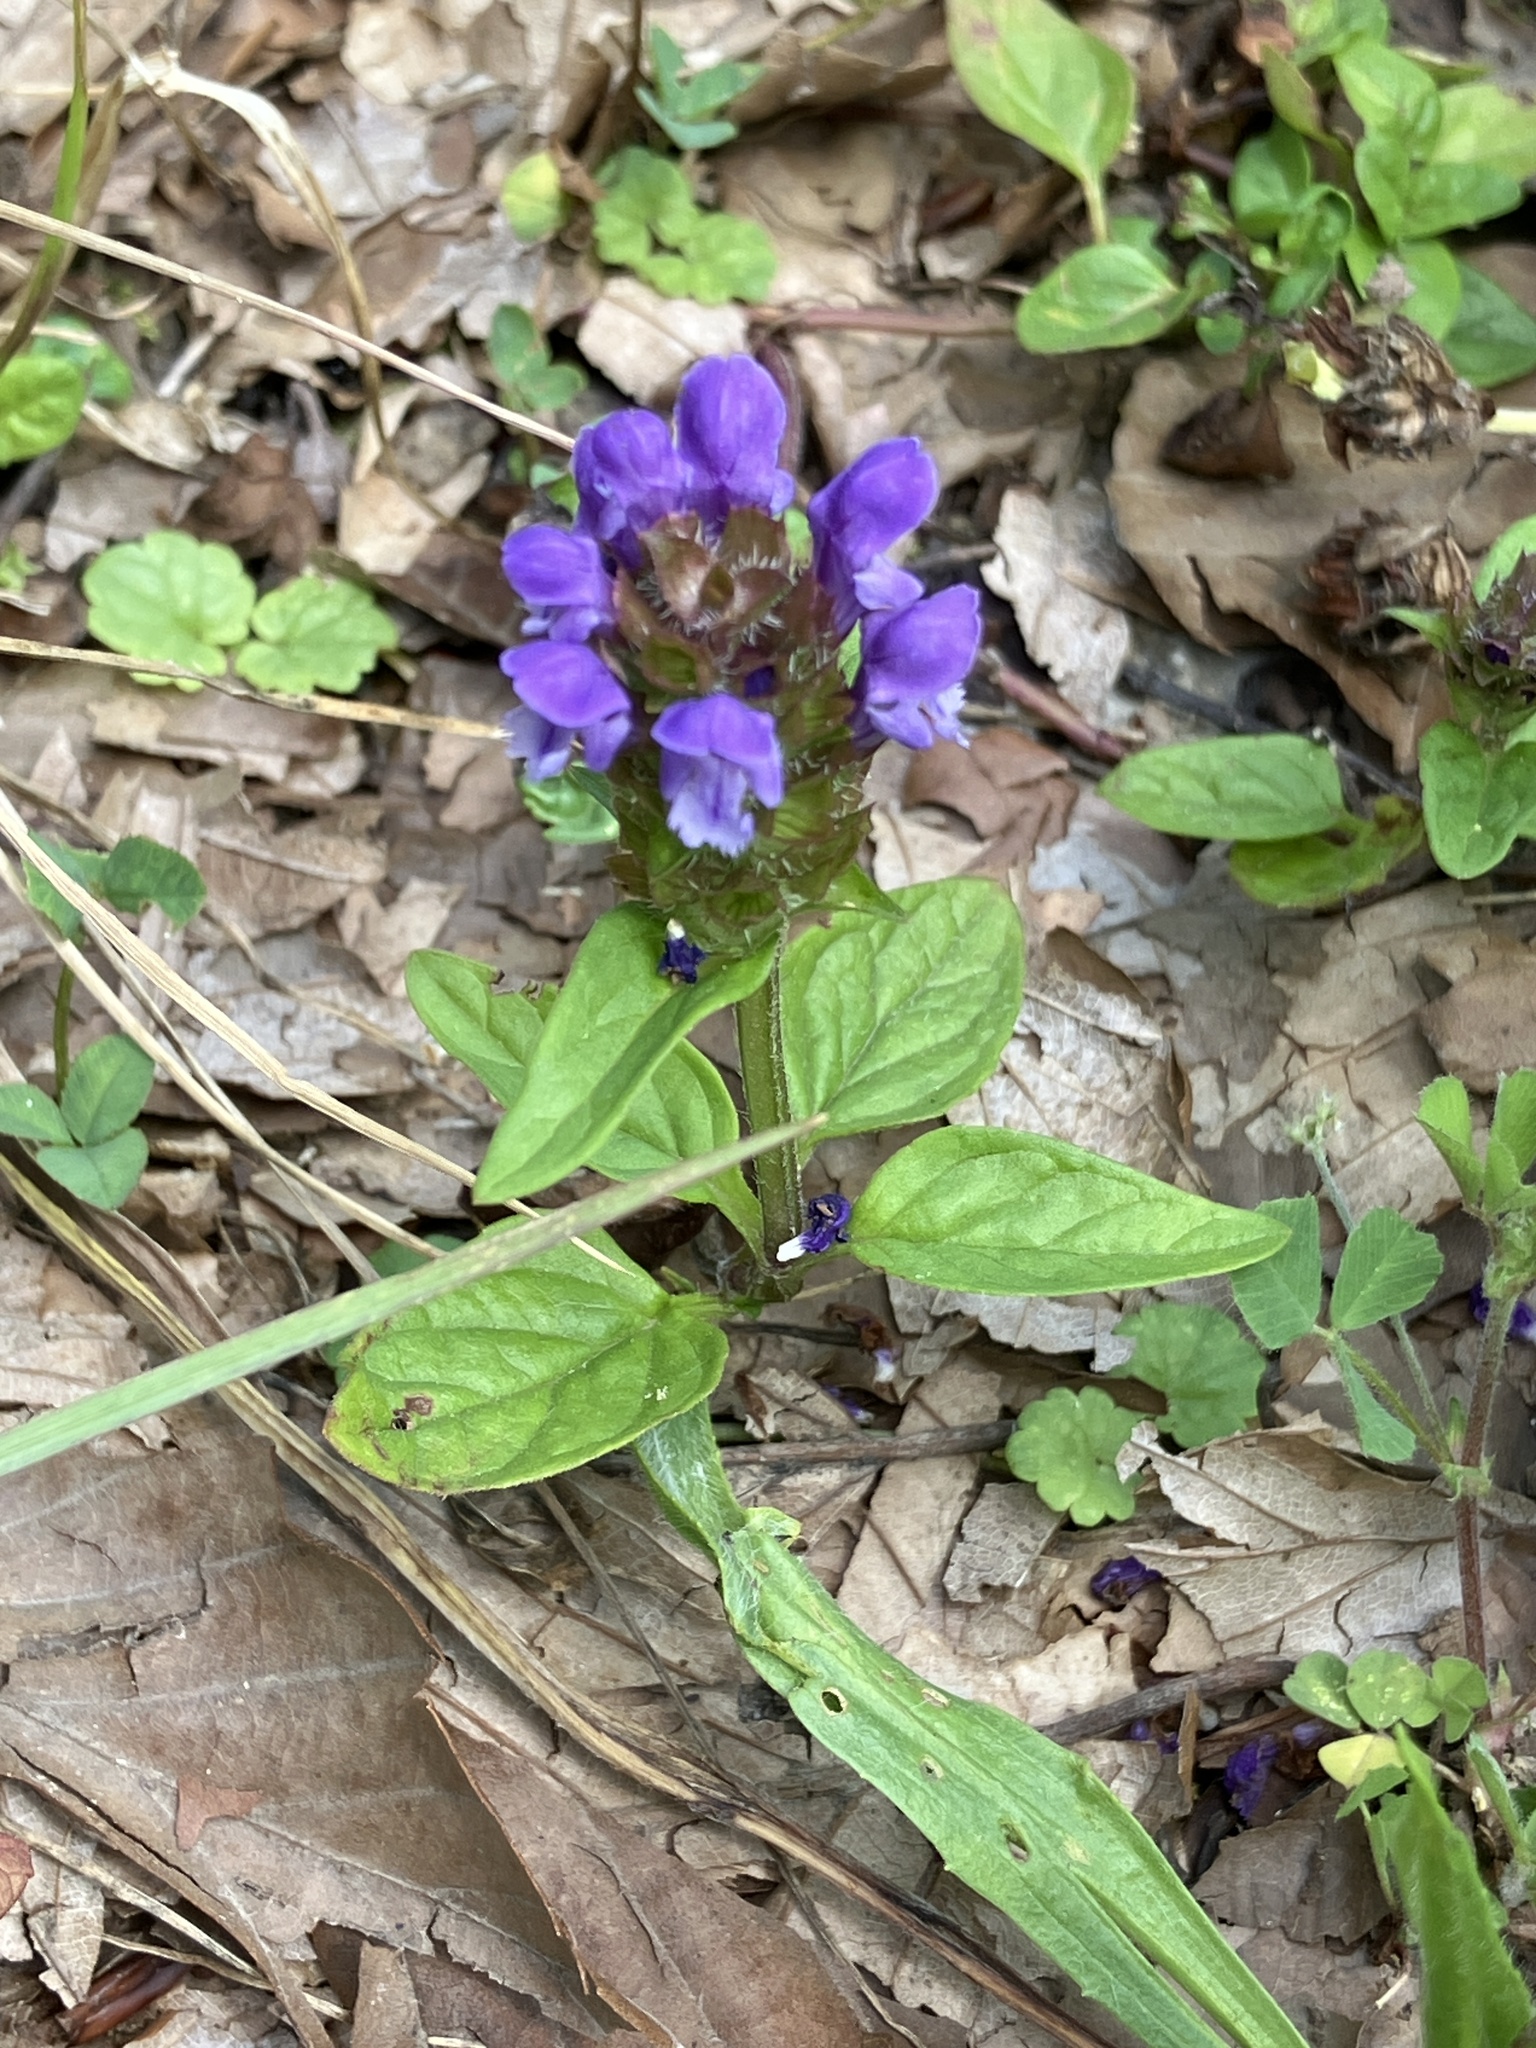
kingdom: Plantae
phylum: Tracheophyta
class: Magnoliopsida
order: Lamiales
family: Lamiaceae
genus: Prunella
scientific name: Prunella vulgaris
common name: Heal-all
